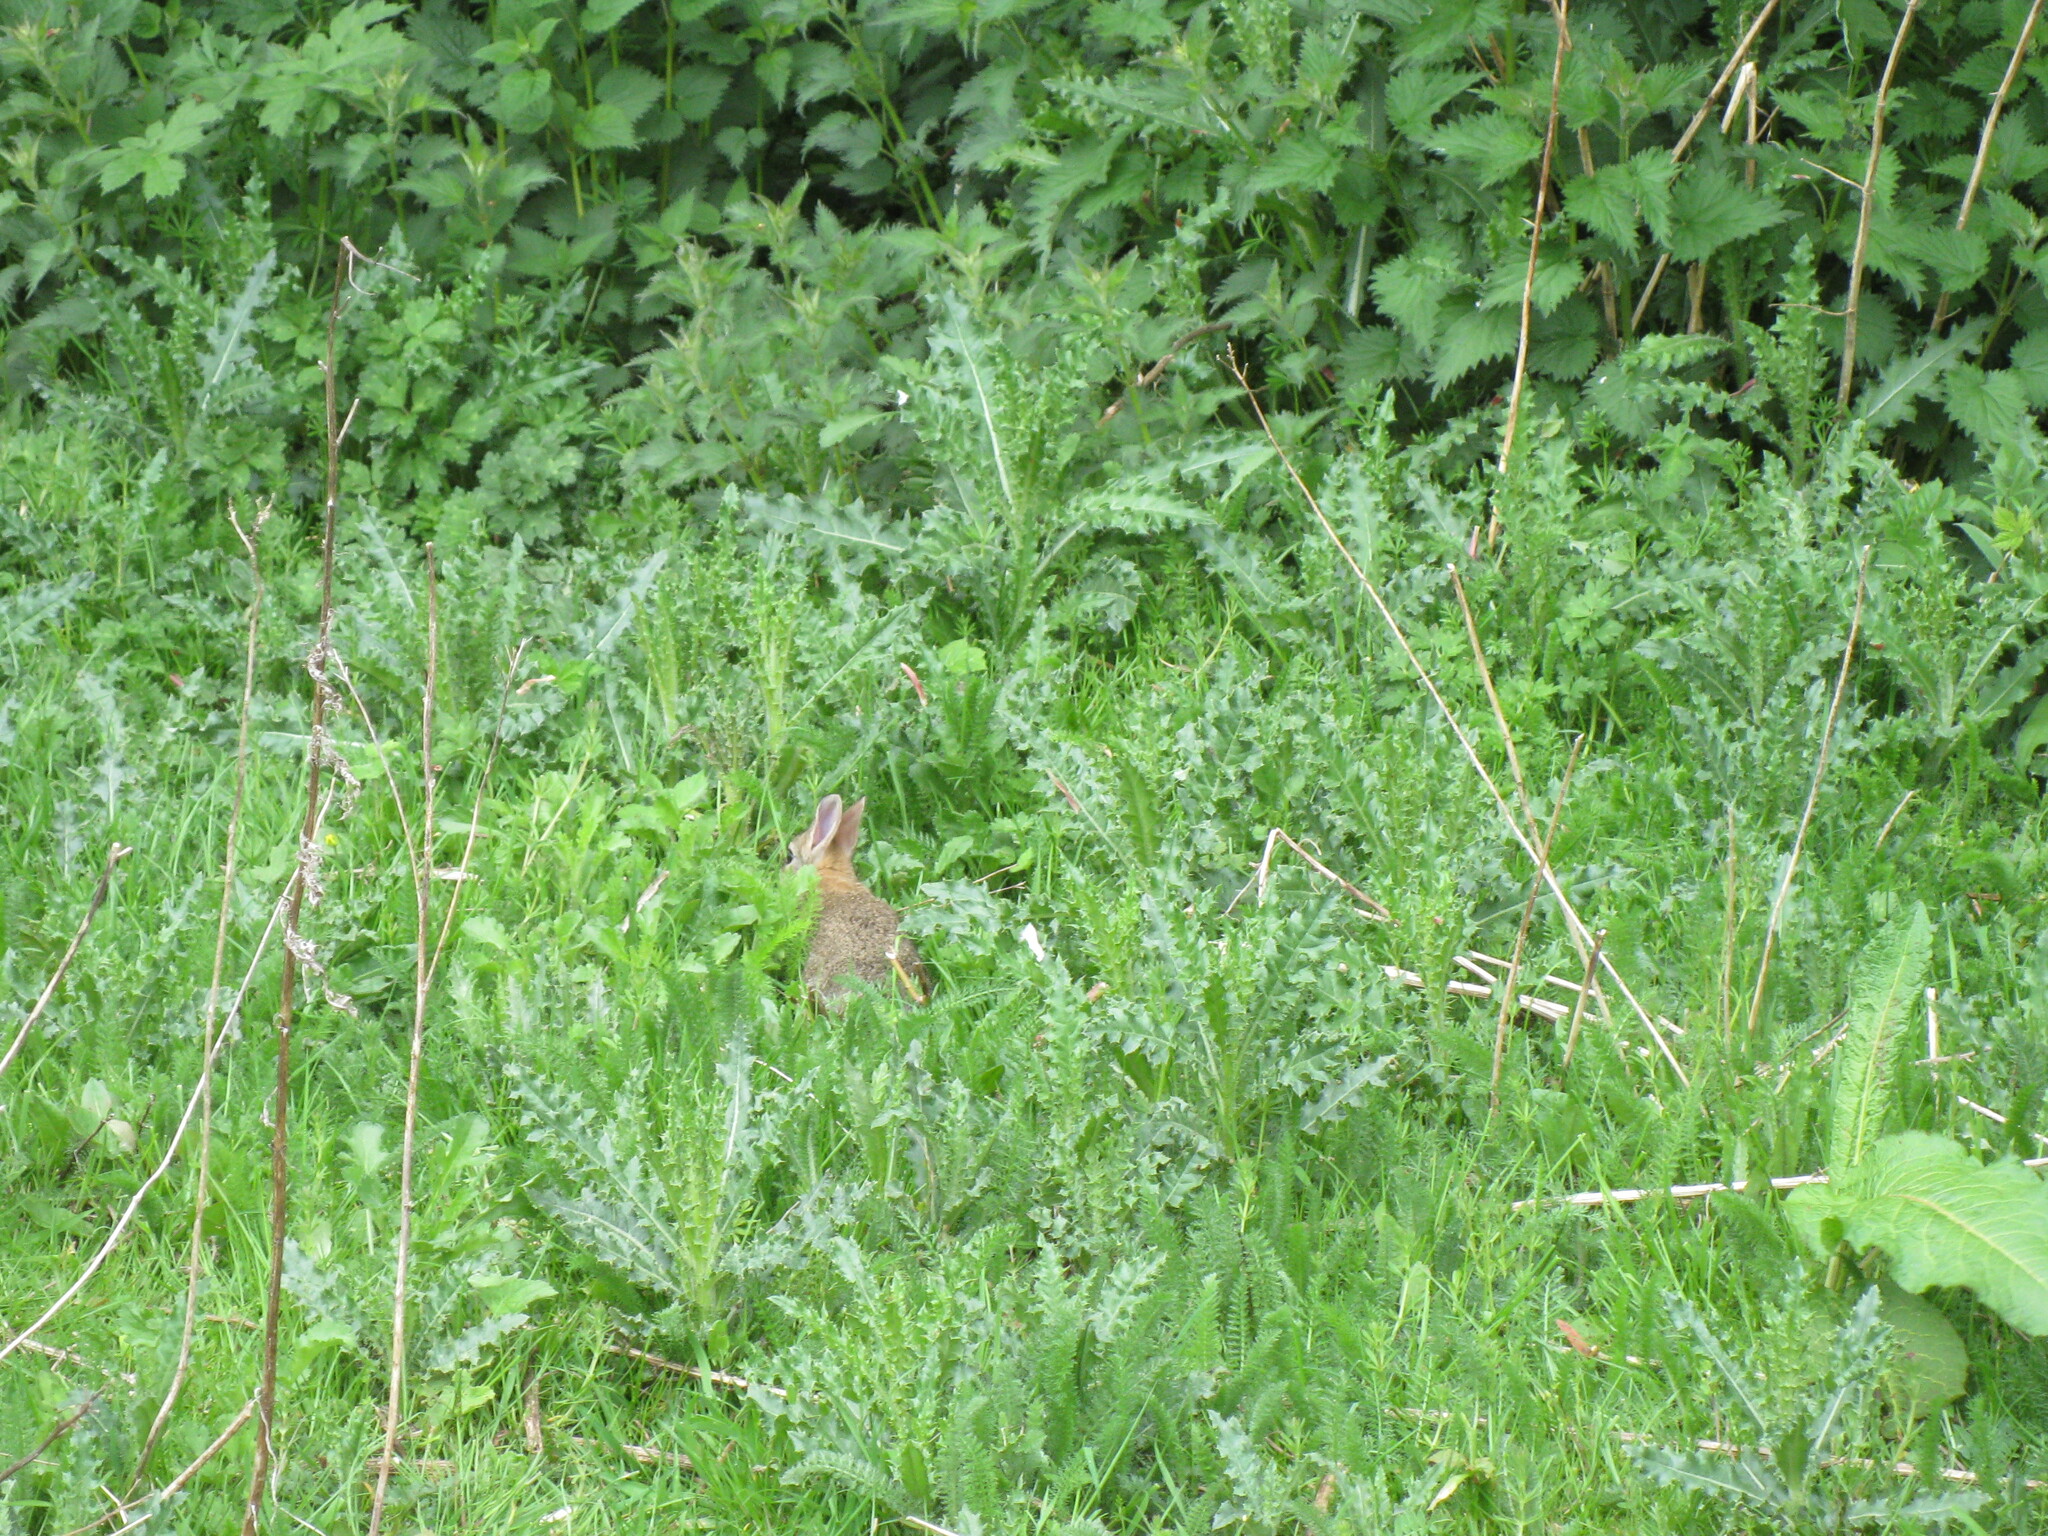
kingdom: Animalia
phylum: Chordata
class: Mammalia
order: Lagomorpha
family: Leporidae
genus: Oryctolagus
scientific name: Oryctolagus cuniculus
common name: European rabbit
